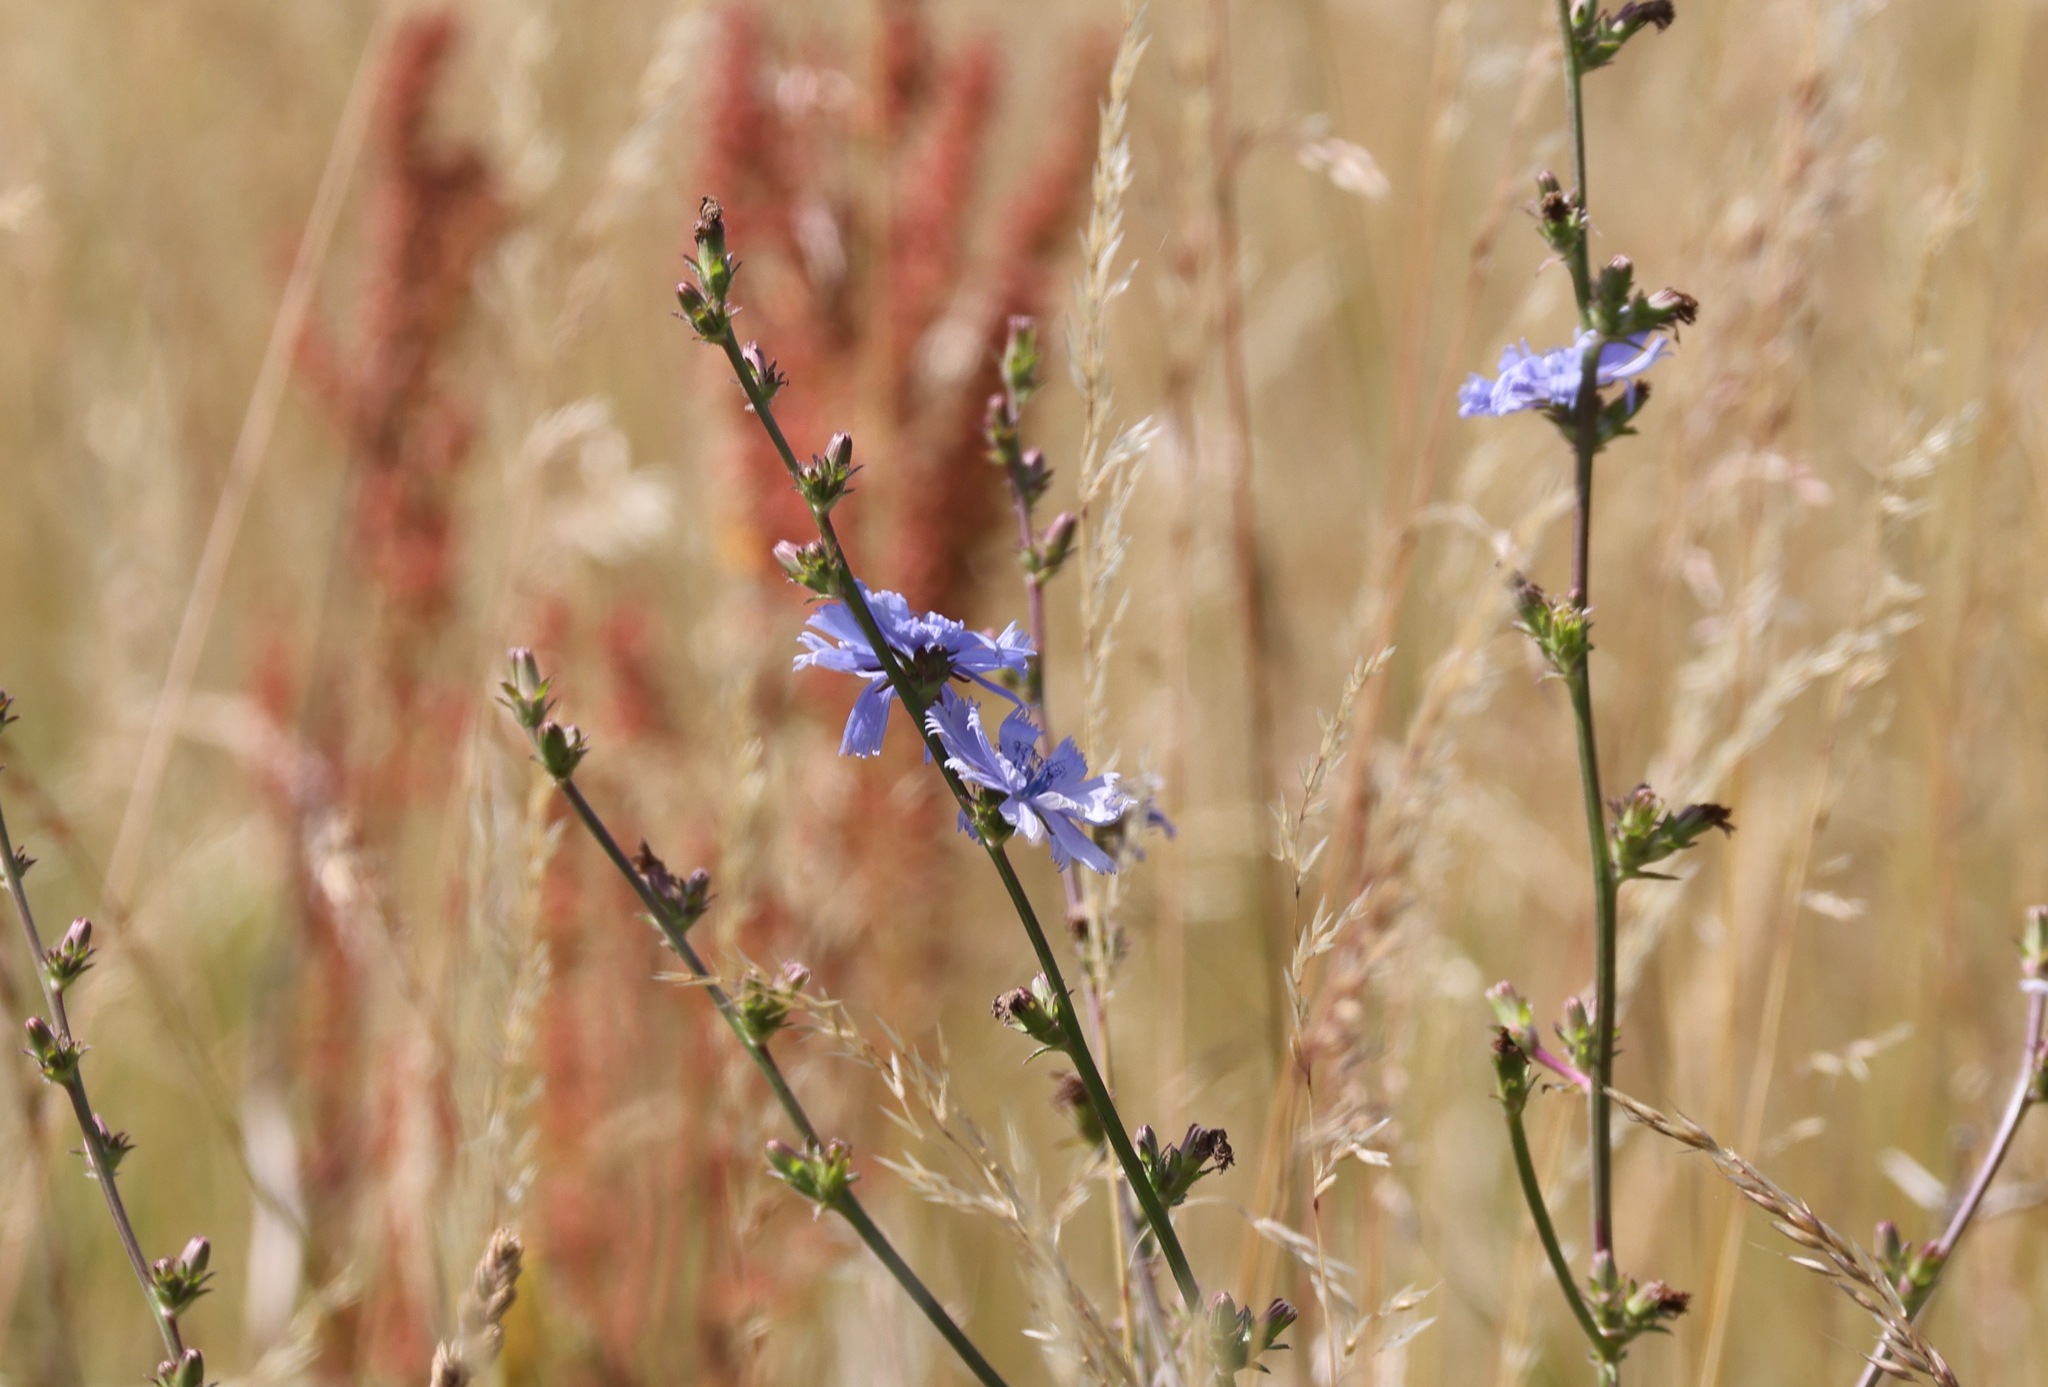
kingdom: Plantae
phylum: Tracheophyta
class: Magnoliopsida
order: Asterales
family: Asteraceae
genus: Cichorium
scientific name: Cichorium intybus
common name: Chicory
